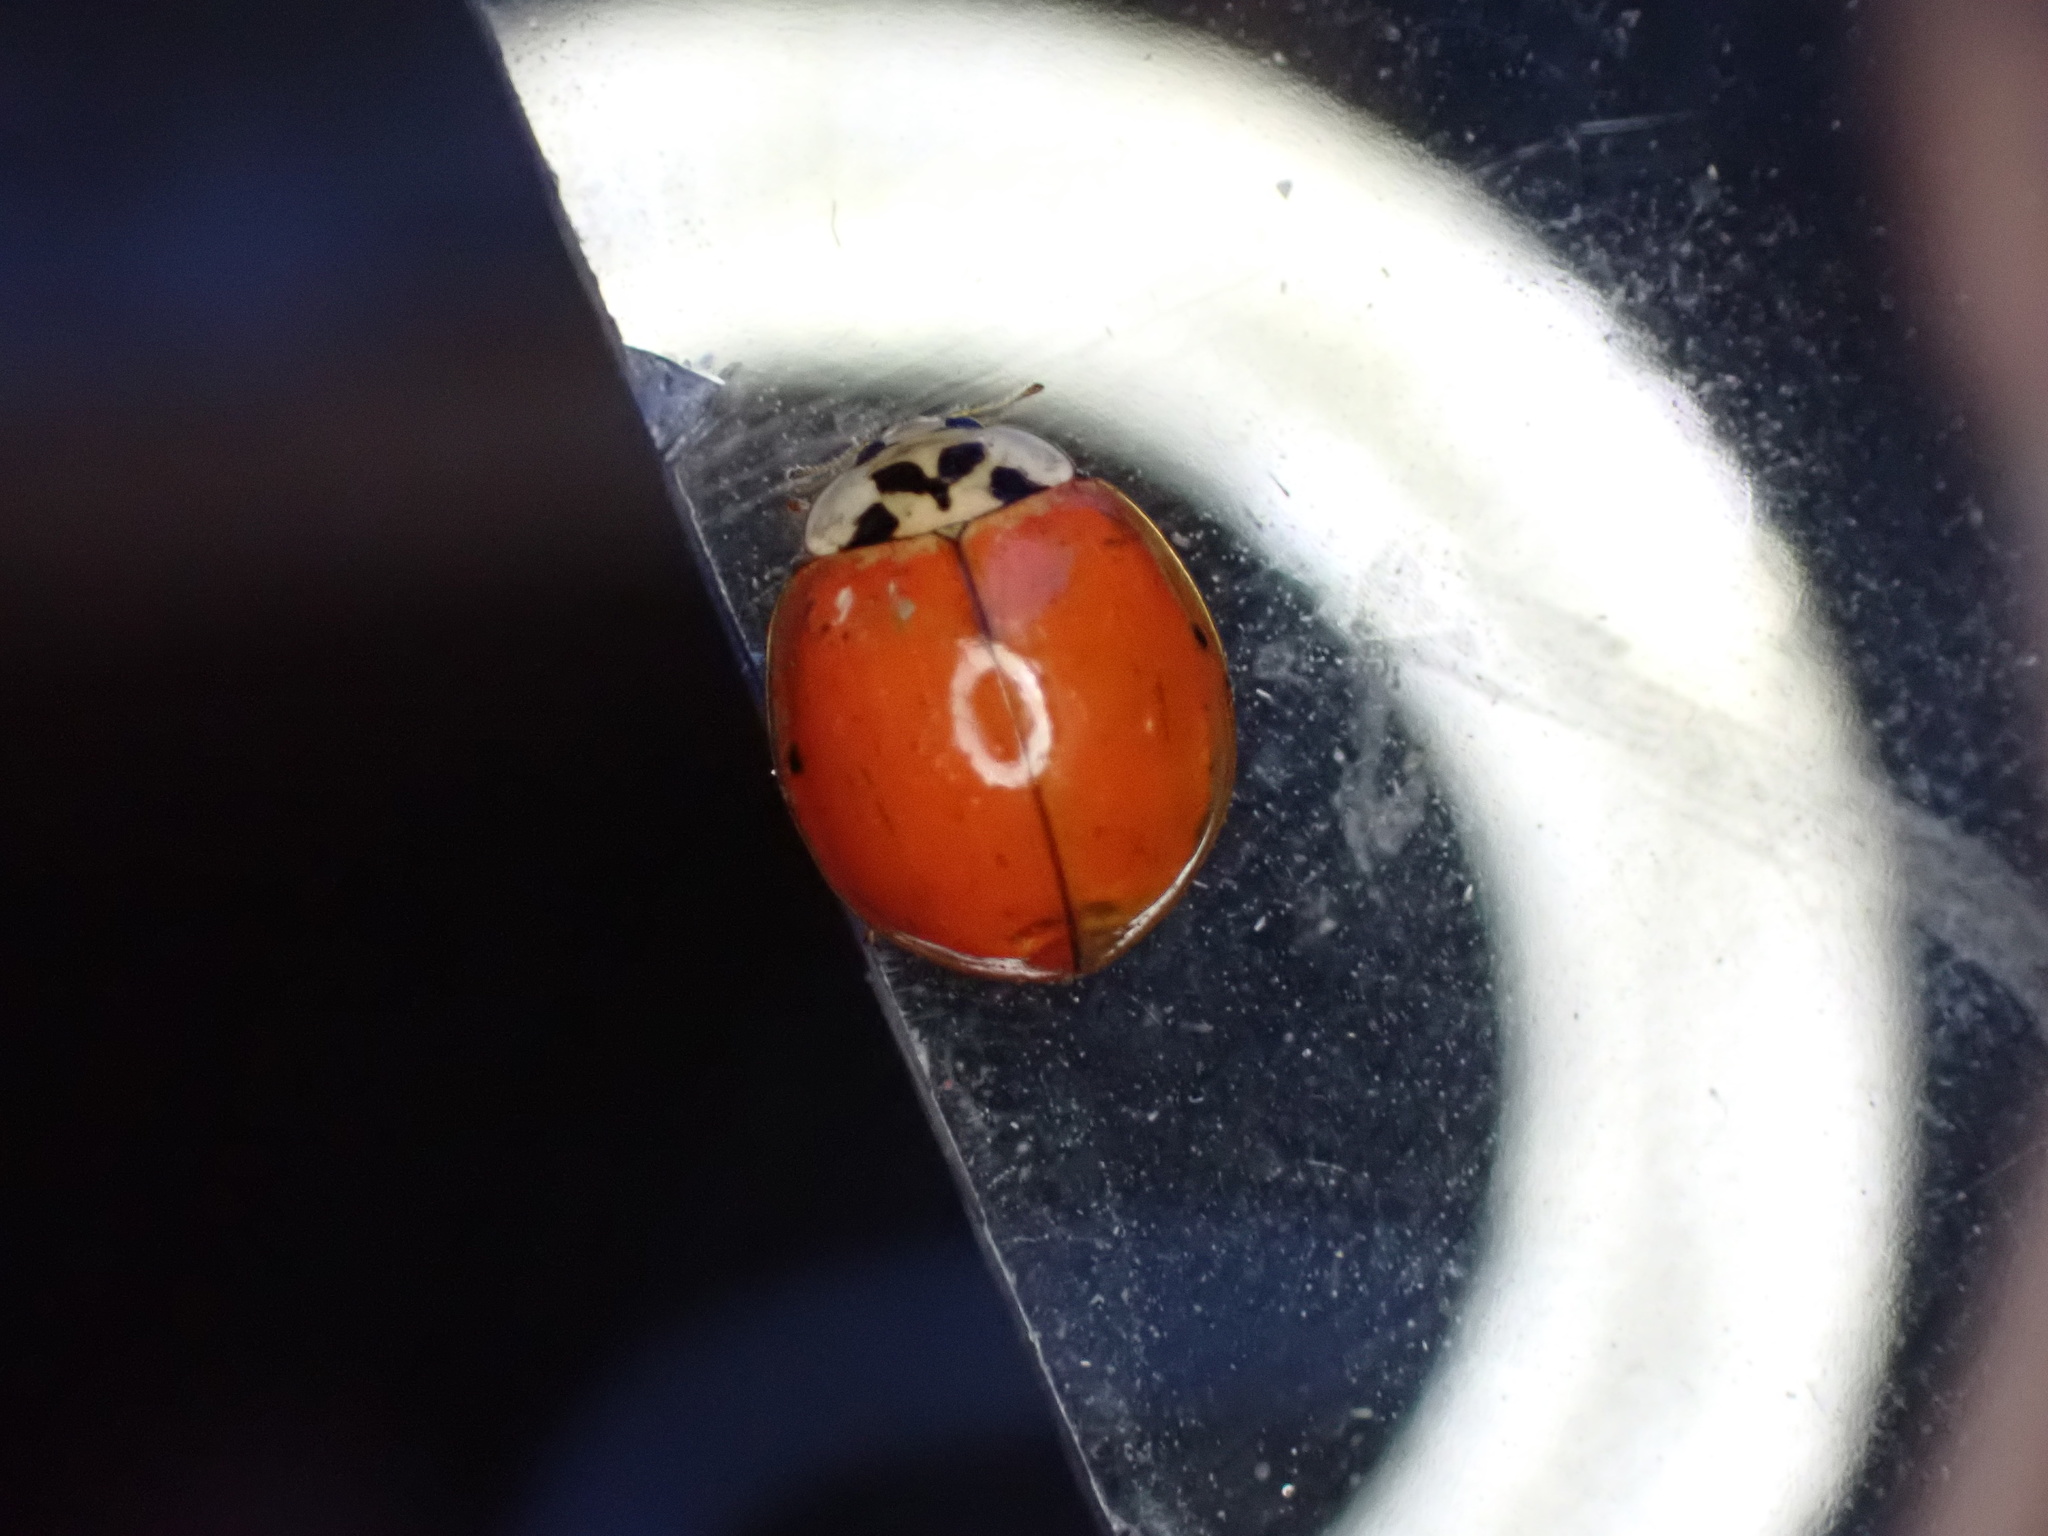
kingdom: Animalia
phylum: Arthropoda
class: Insecta
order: Coleoptera
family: Coccinellidae
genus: Harmonia
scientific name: Harmonia axyridis
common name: Harlequin ladybird
